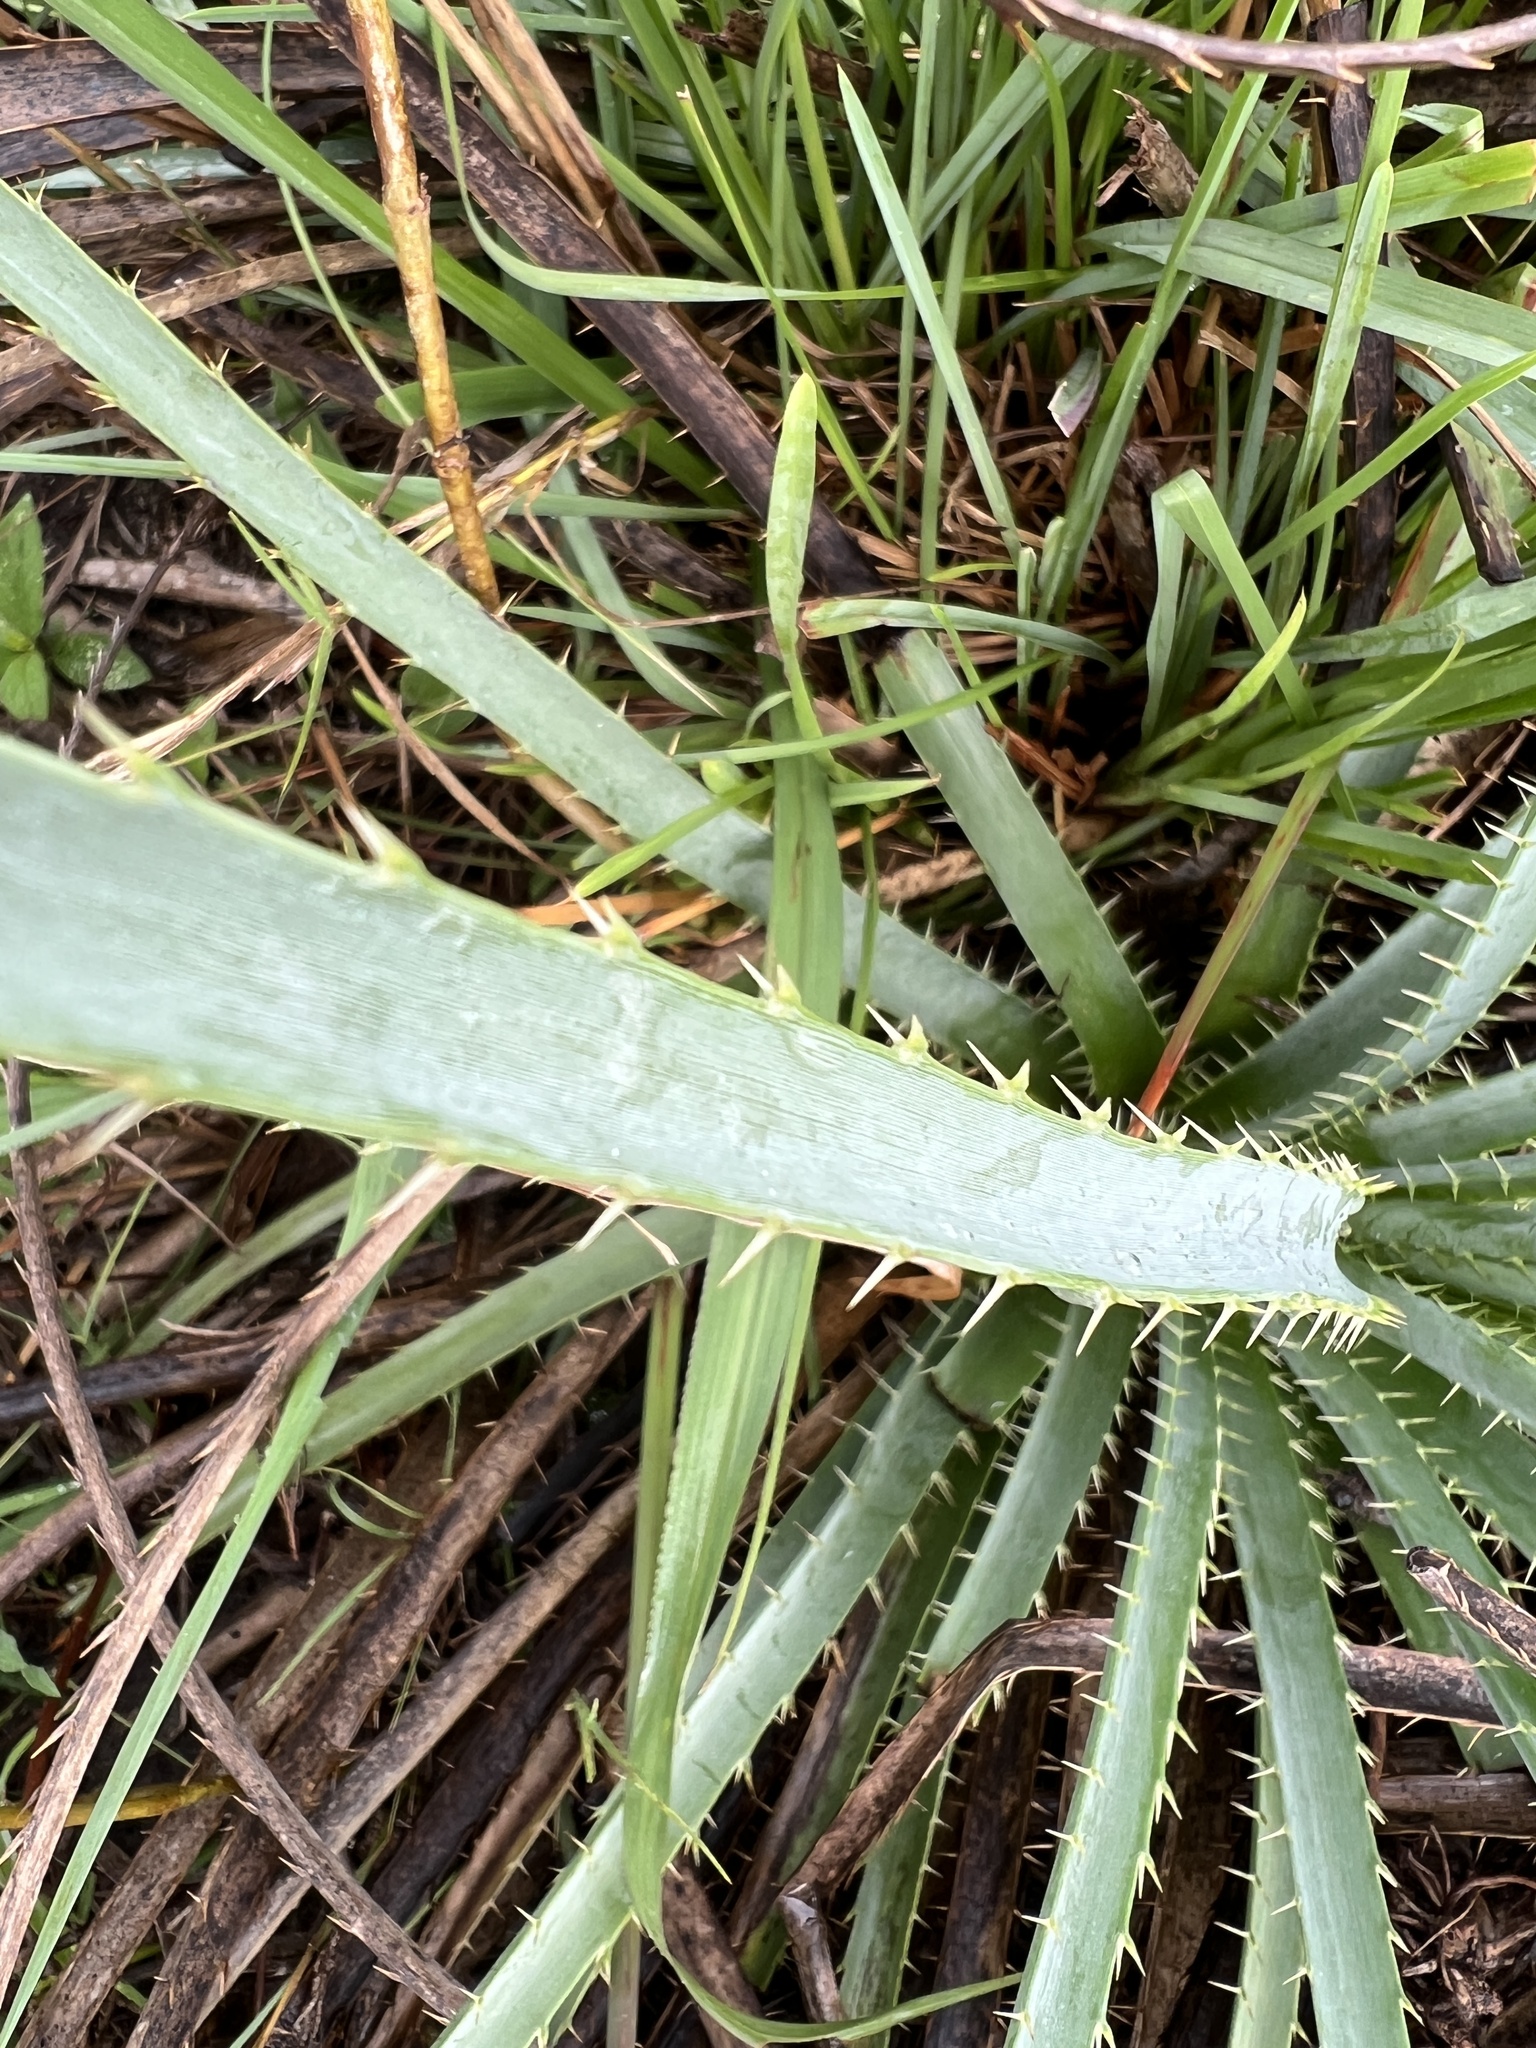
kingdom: Plantae
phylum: Tracheophyta
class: Magnoliopsida
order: Apiales
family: Apiaceae
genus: Eryngium
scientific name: Eryngium horridum
